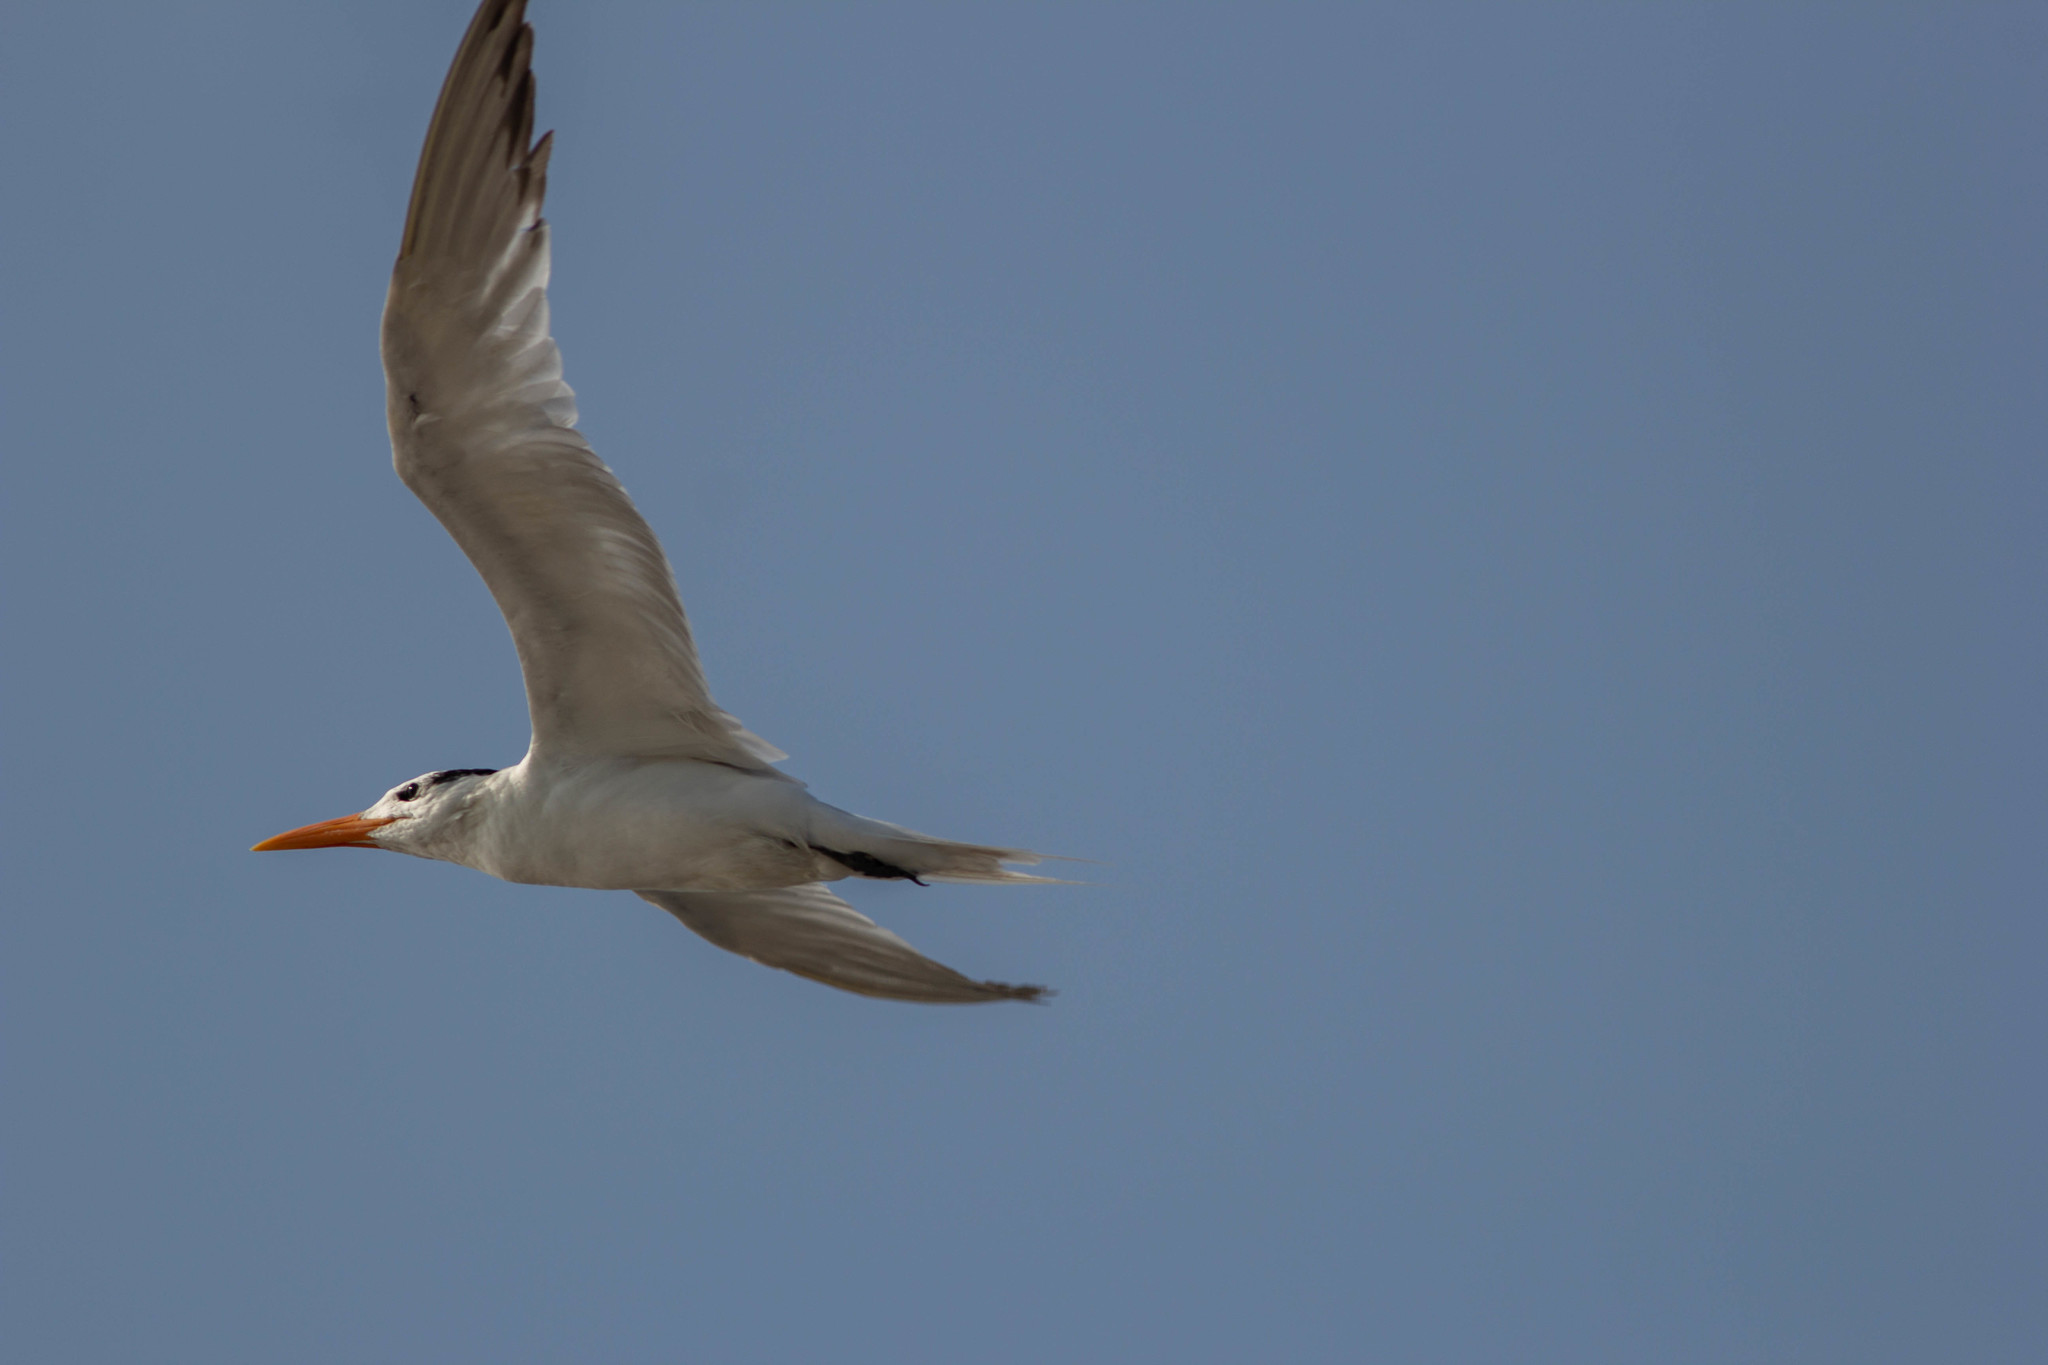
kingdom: Animalia
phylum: Chordata
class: Aves
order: Charadriiformes
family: Laridae
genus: Thalasseus
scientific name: Thalasseus maximus
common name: Royal tern
